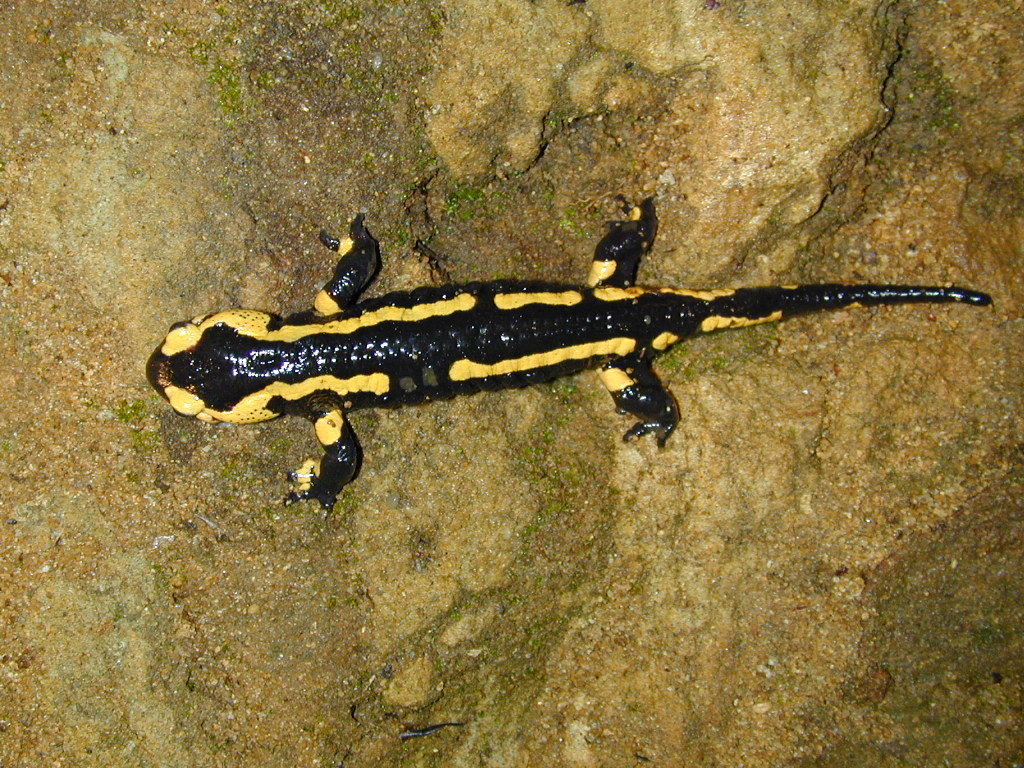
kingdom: Animalia
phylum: Chordata
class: Amphibia
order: Caudata
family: Salamandridae
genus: Salamandra
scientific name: Salamandra salamandra
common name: Fire salamander
